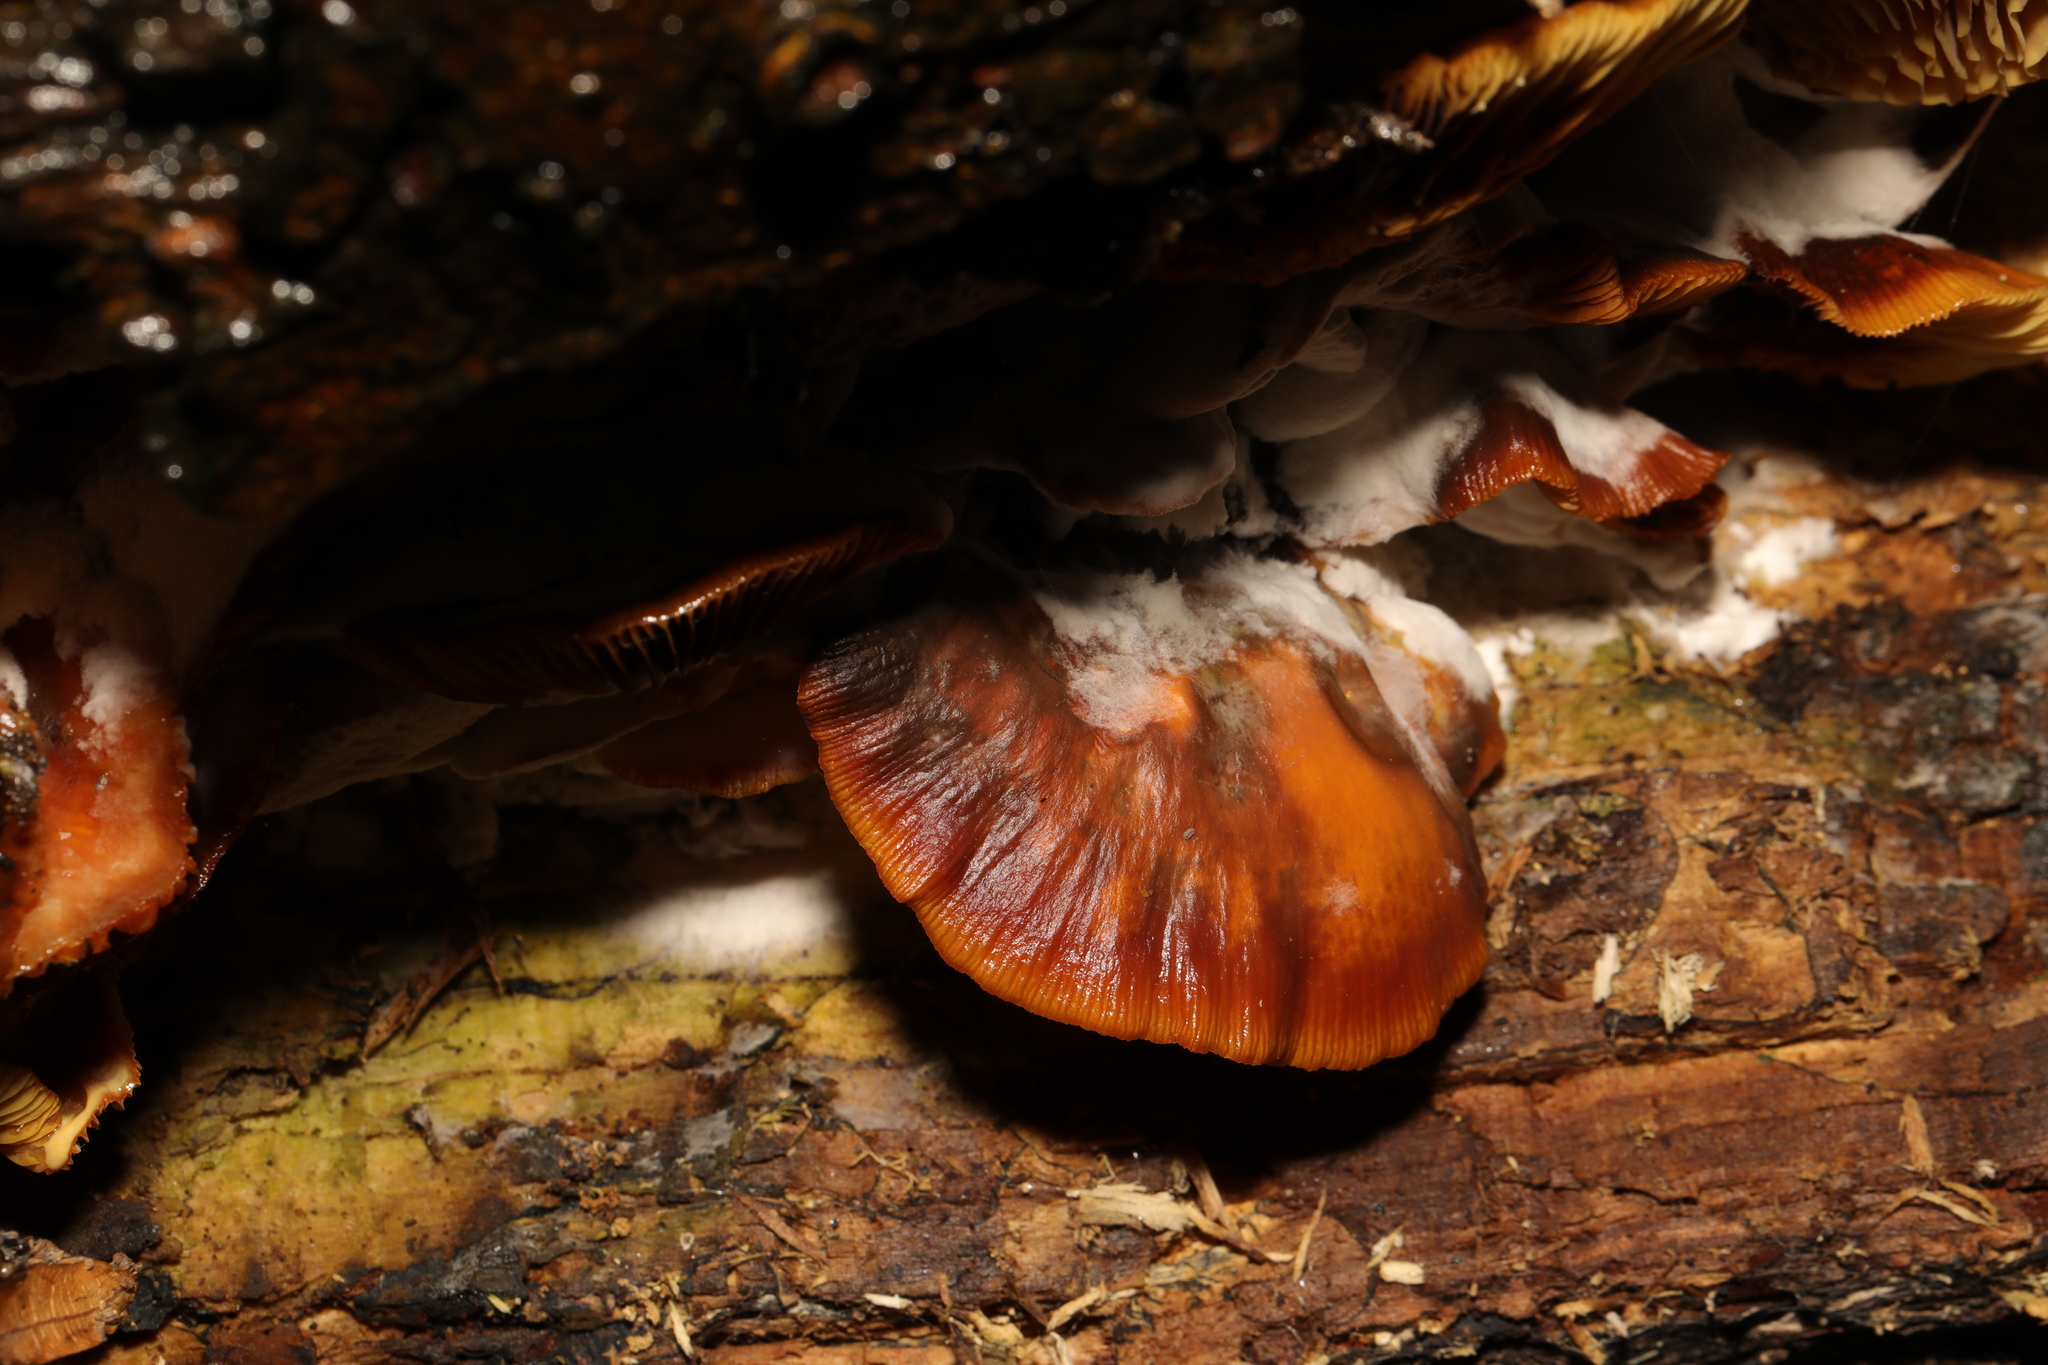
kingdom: Fungi
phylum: Basidiomycota
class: Agaricomycetes
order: Agaricales
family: Physalacriaceae
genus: Flammulina
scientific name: Flammulina
